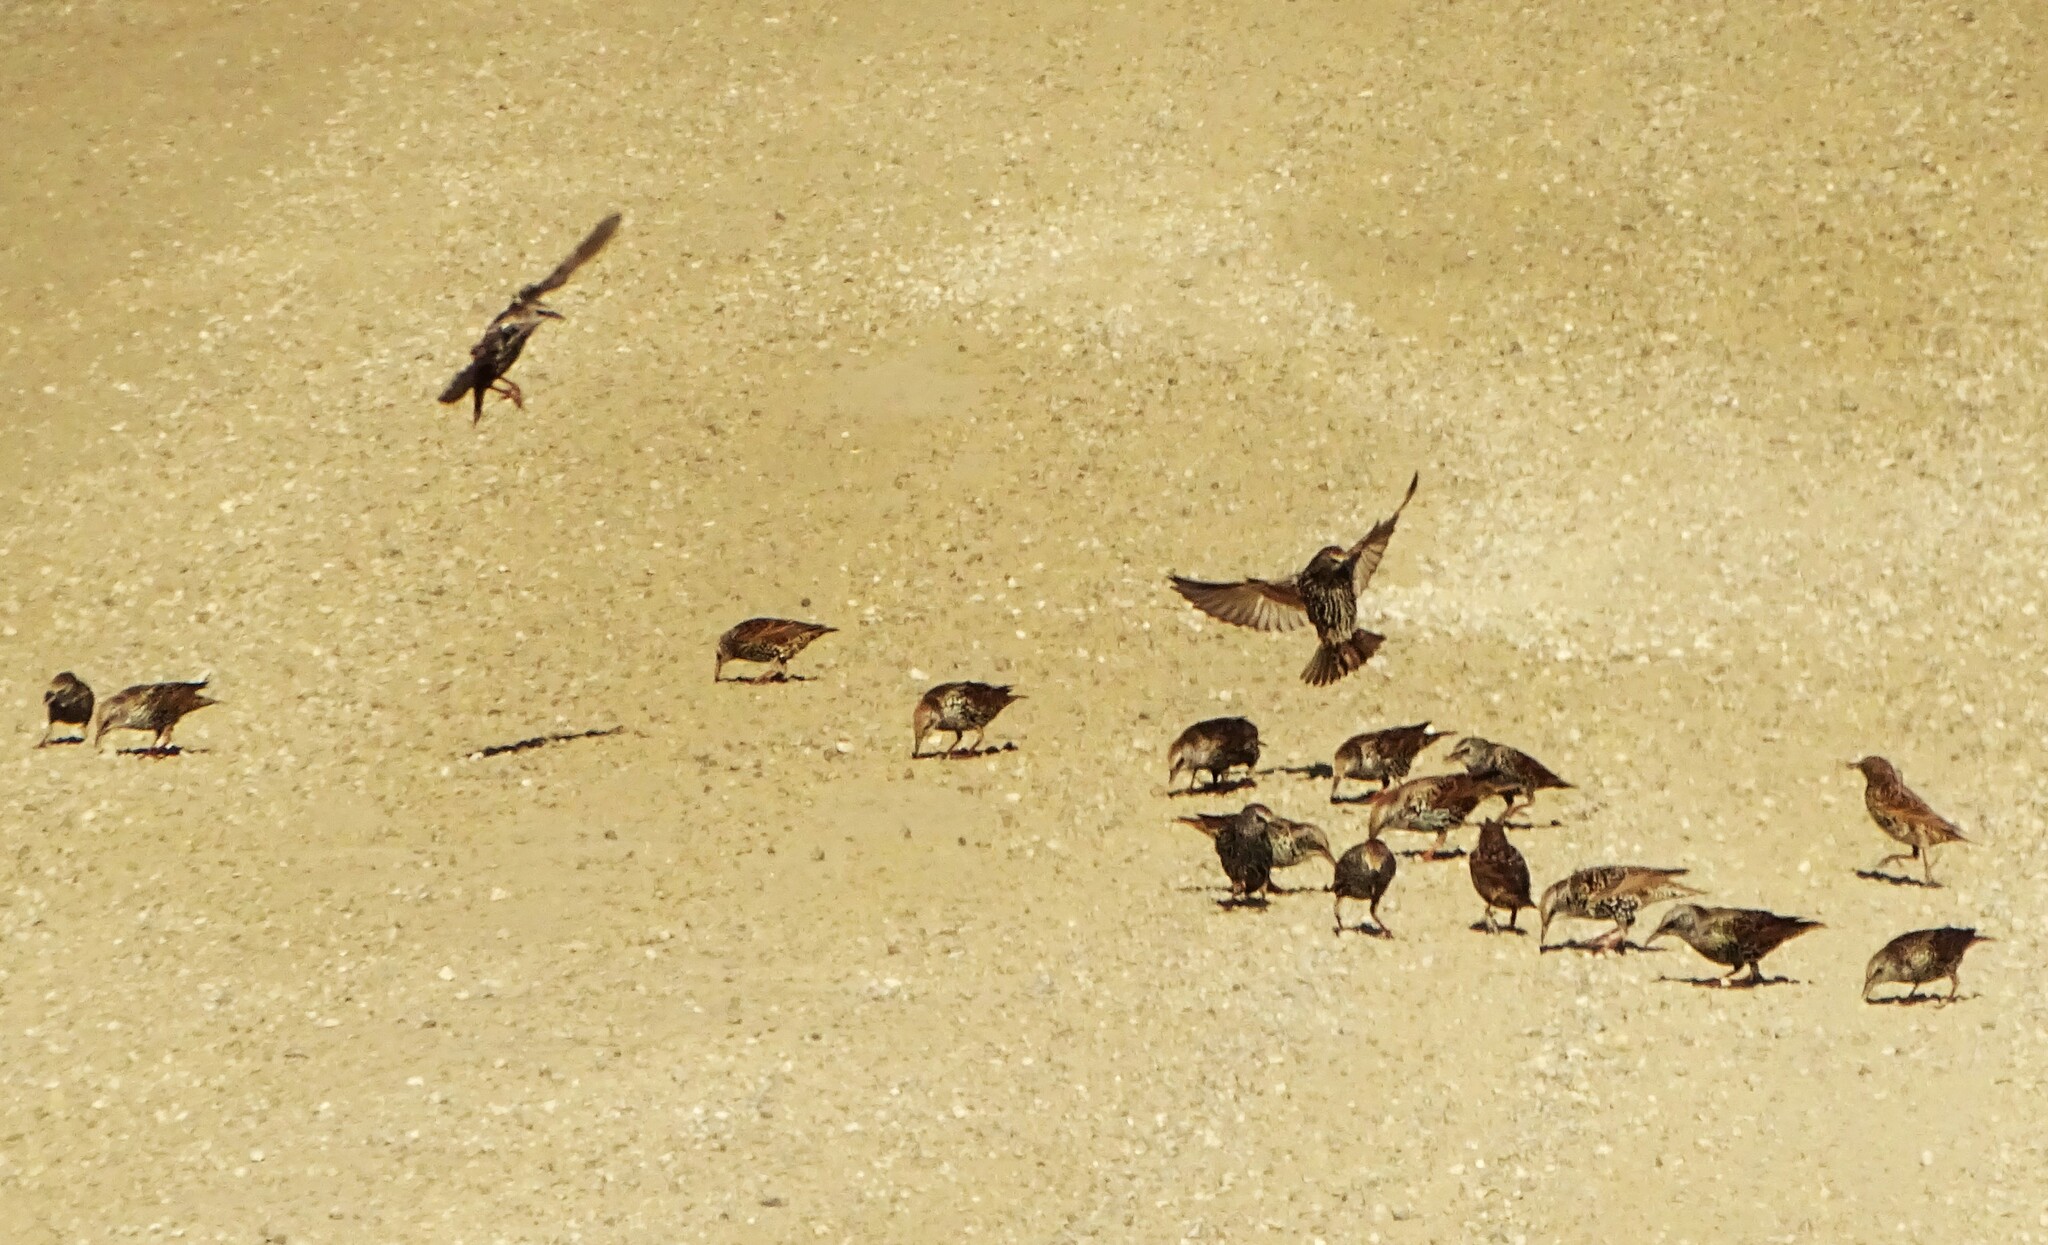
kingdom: Animalia
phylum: Chordata
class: Aves
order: Passeriformes
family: Sturnidae
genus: Sturnus
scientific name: Sturnus vulgaris
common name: Common starling
